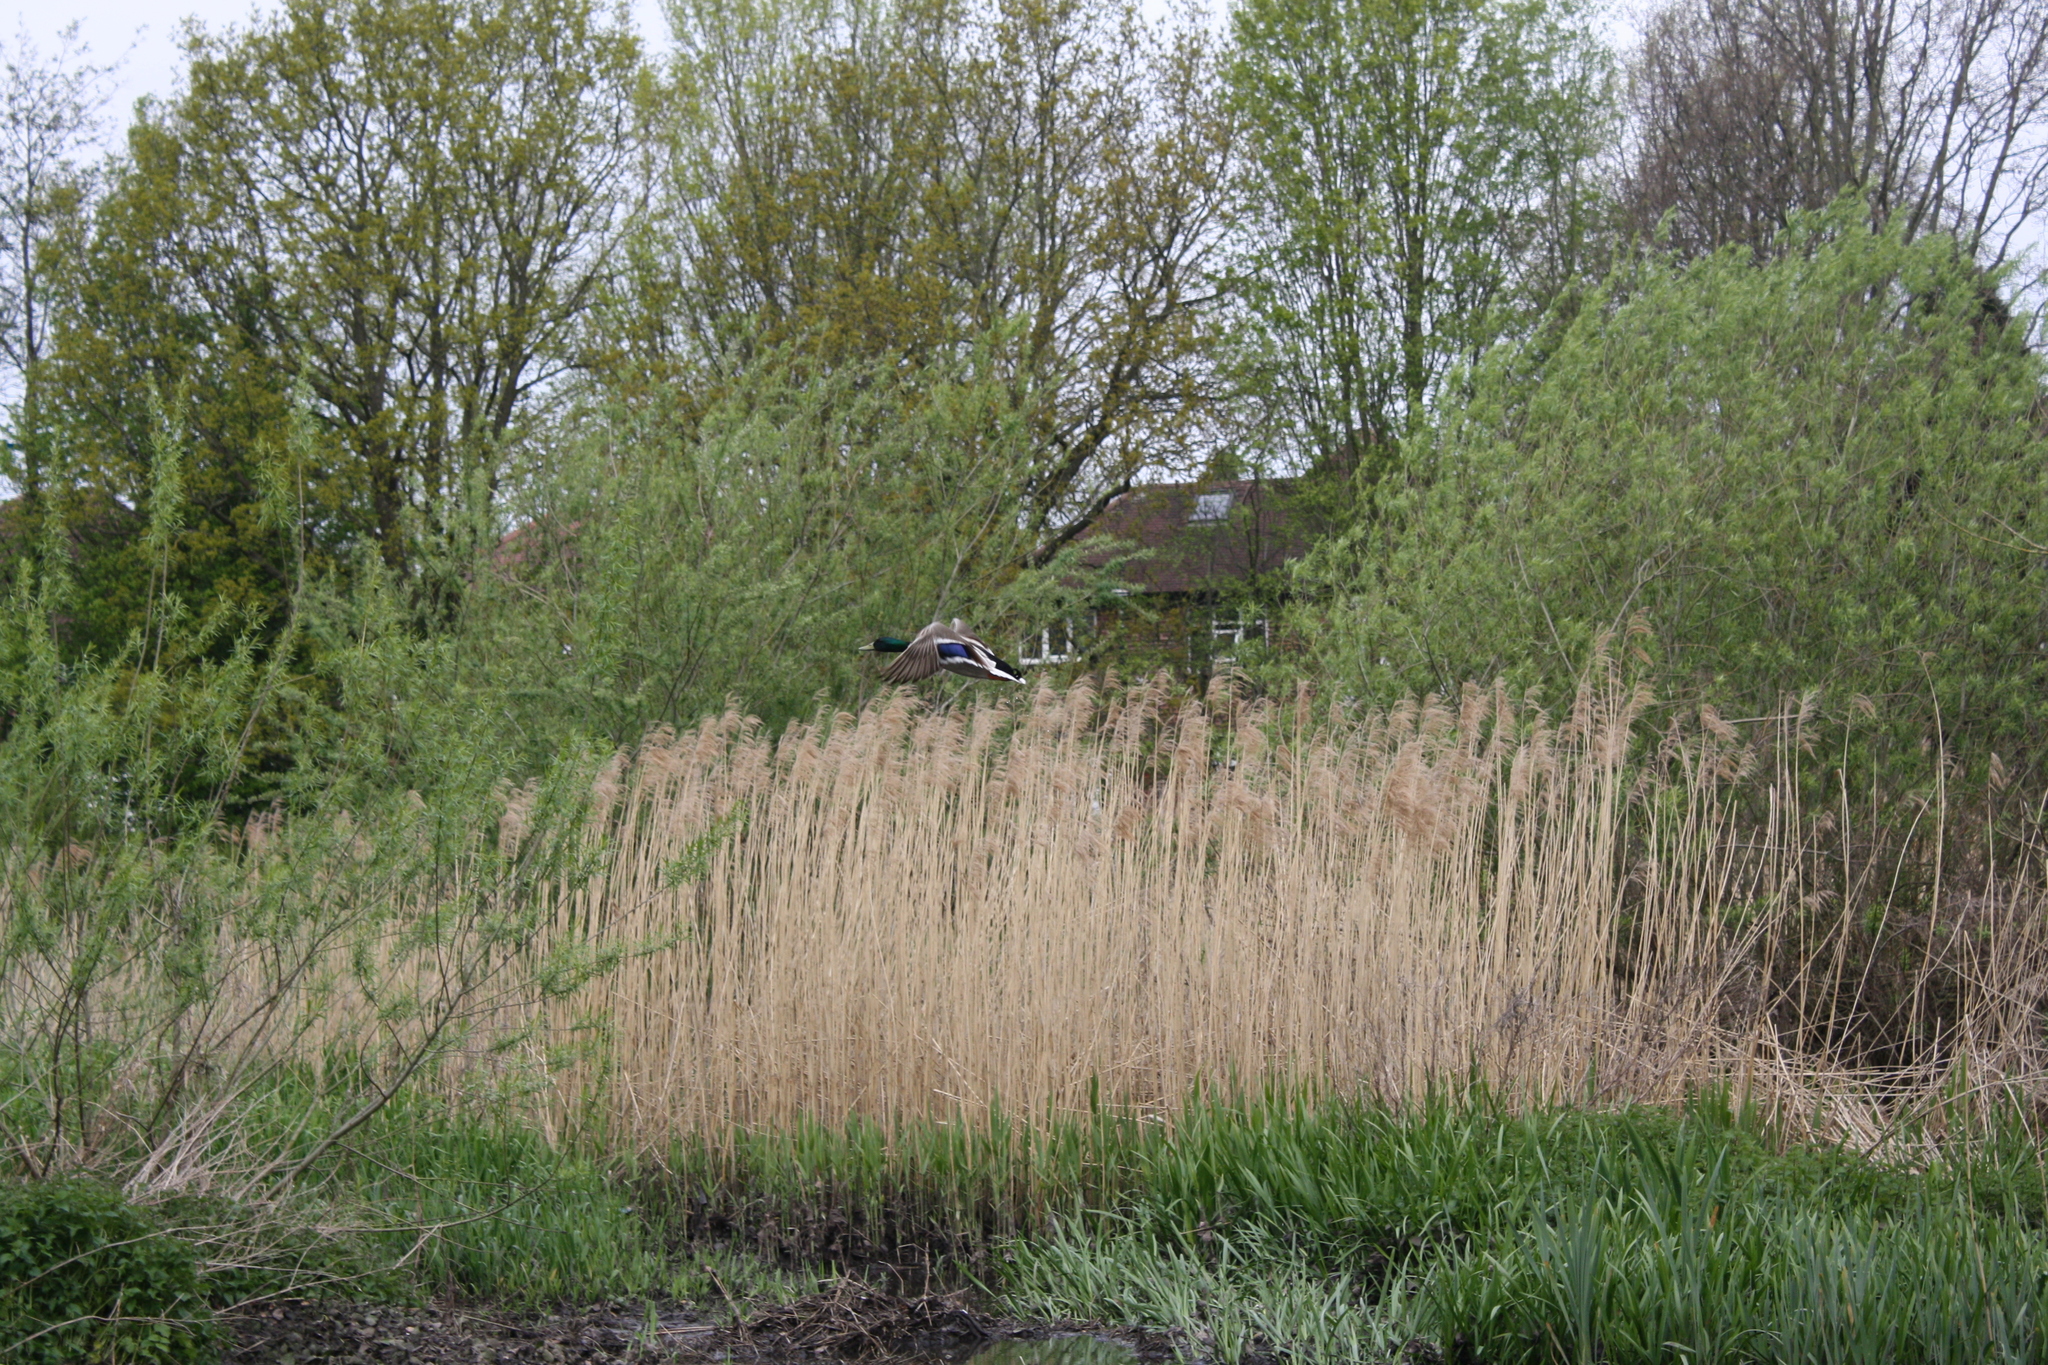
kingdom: Animalia
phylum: Chordata
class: Aves
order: Anseriformes
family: Anatidae
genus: Anas
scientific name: Anas platyrhynchos
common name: Mallard
